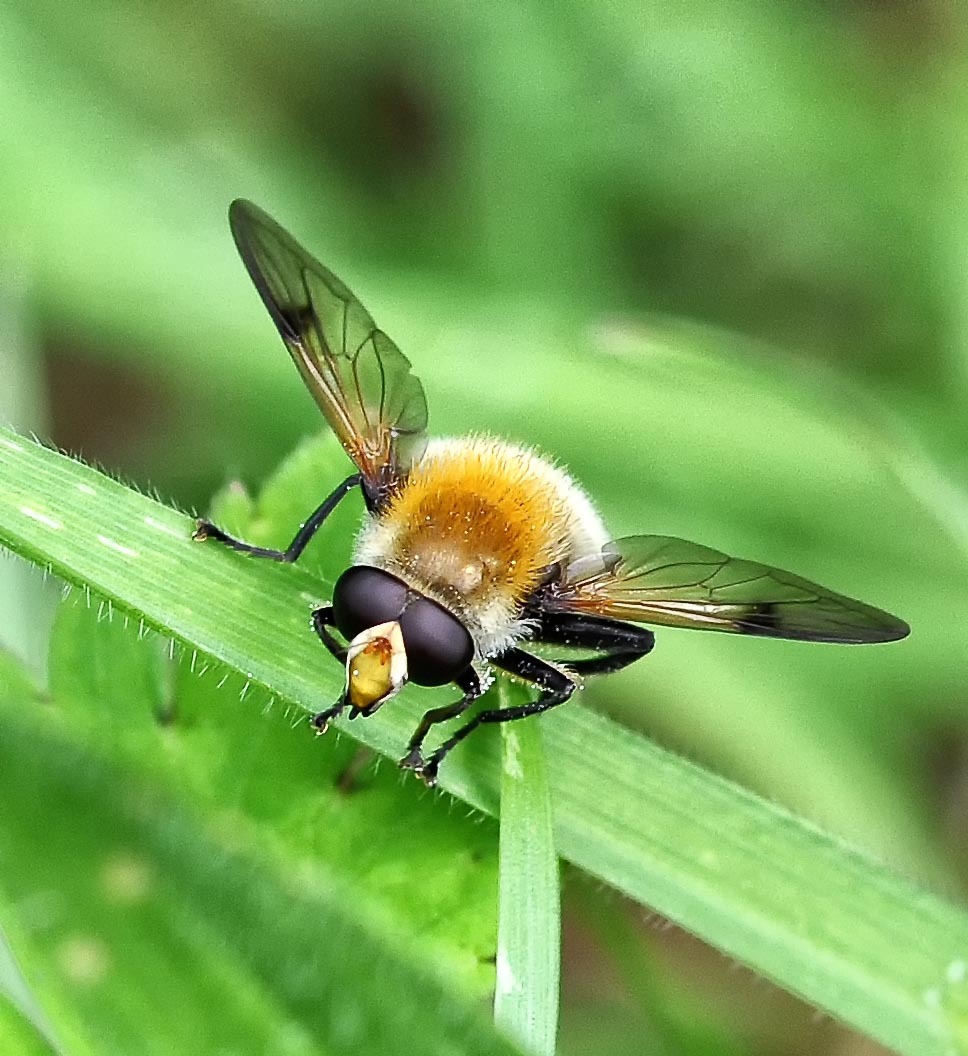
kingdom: Animalia
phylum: Arthropoda
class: Insecta
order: Diptera
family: Syrphidae
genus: Sericomyia
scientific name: Sericomyia superbiens
